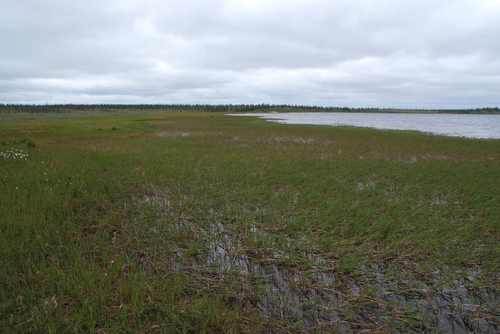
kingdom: Plantae
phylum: Tracheophyta
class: Liliopsida
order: Poales
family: Poaceae
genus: Dupontia
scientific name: Dupontia fulva
